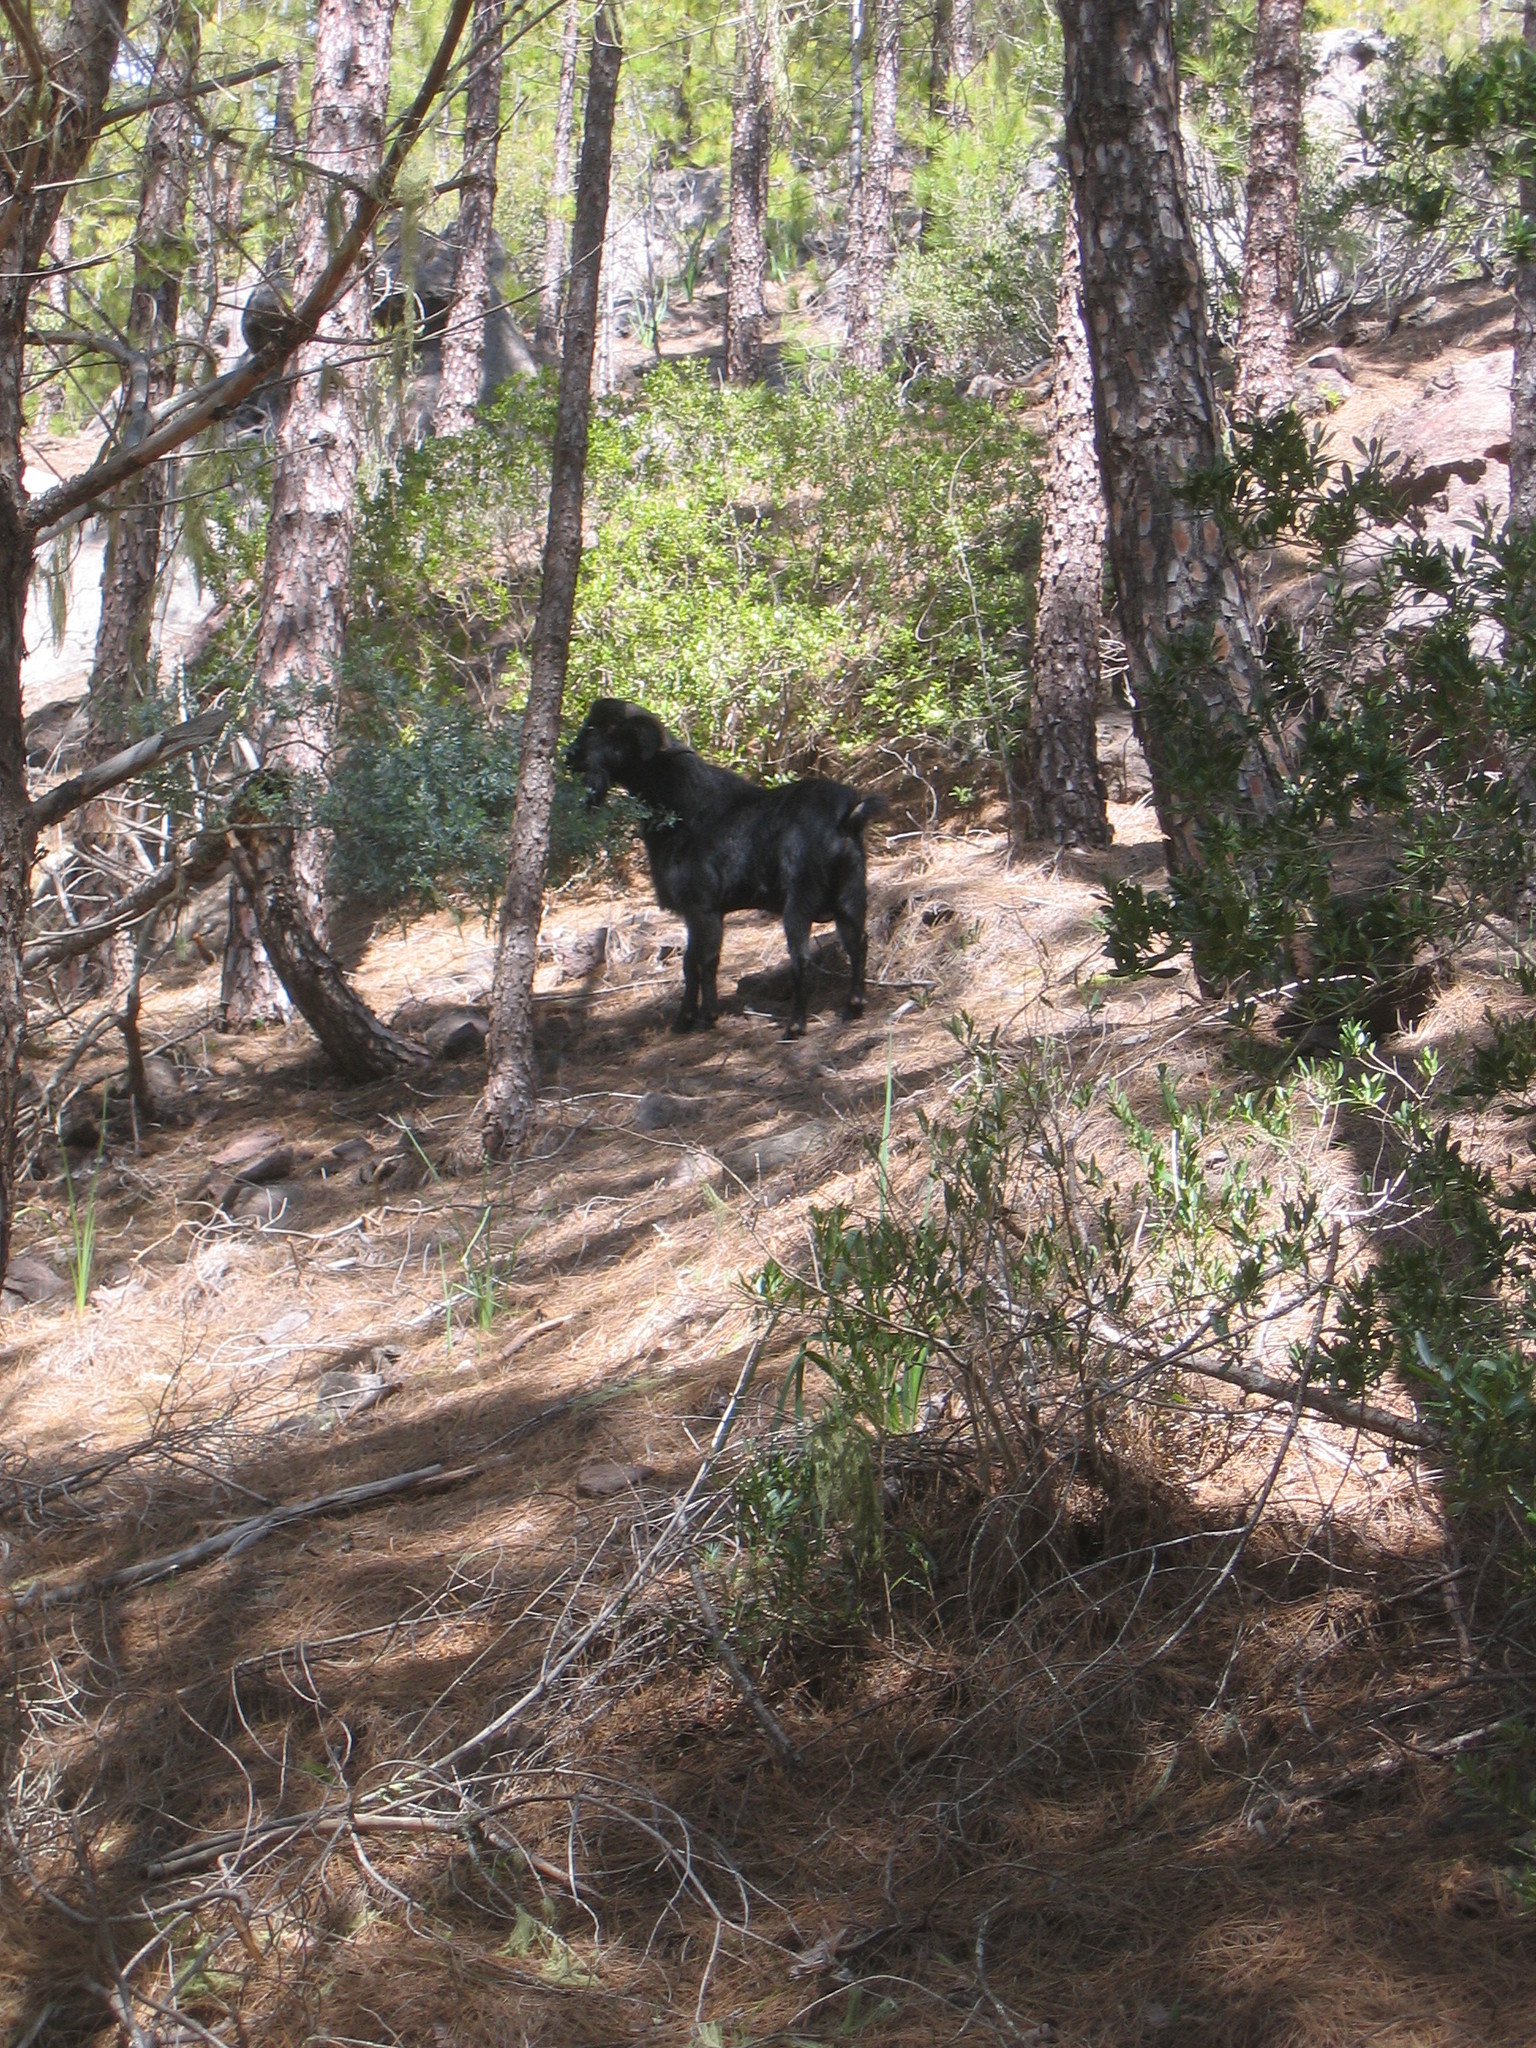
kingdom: Animalia
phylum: Chordata
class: Mammalia
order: Artiodactyla
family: Bovidae
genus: Capra
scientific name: Capra hircus
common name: Domestic goat
